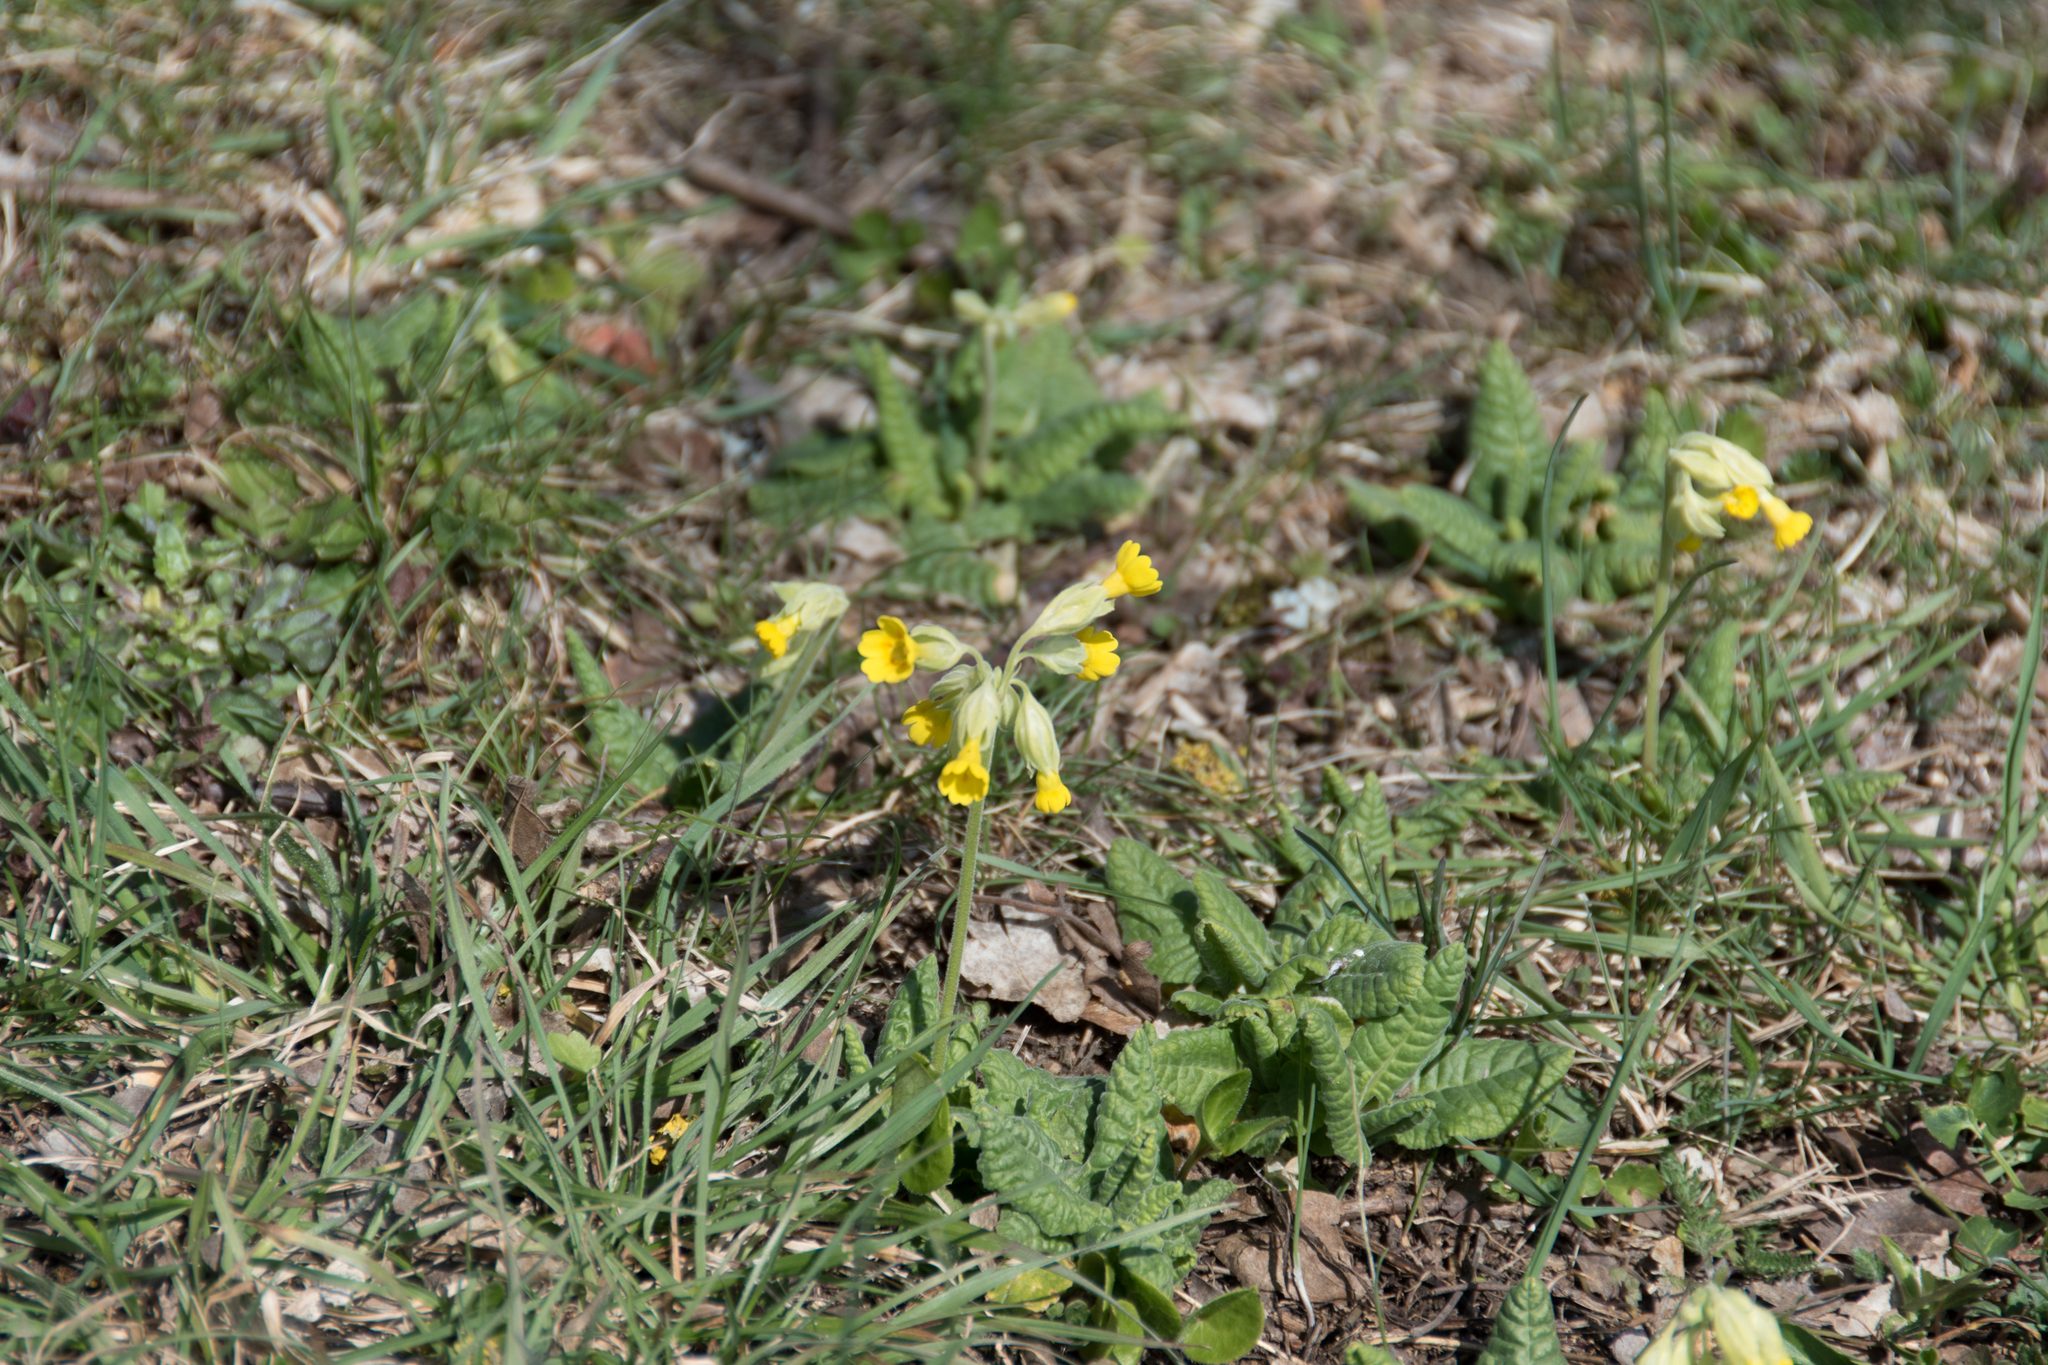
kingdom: Plantae
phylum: Tracheophyta
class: Magnoliopsida
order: Ericales
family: Primulaceae
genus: Primula
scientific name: Primula veris
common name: Cowslip
